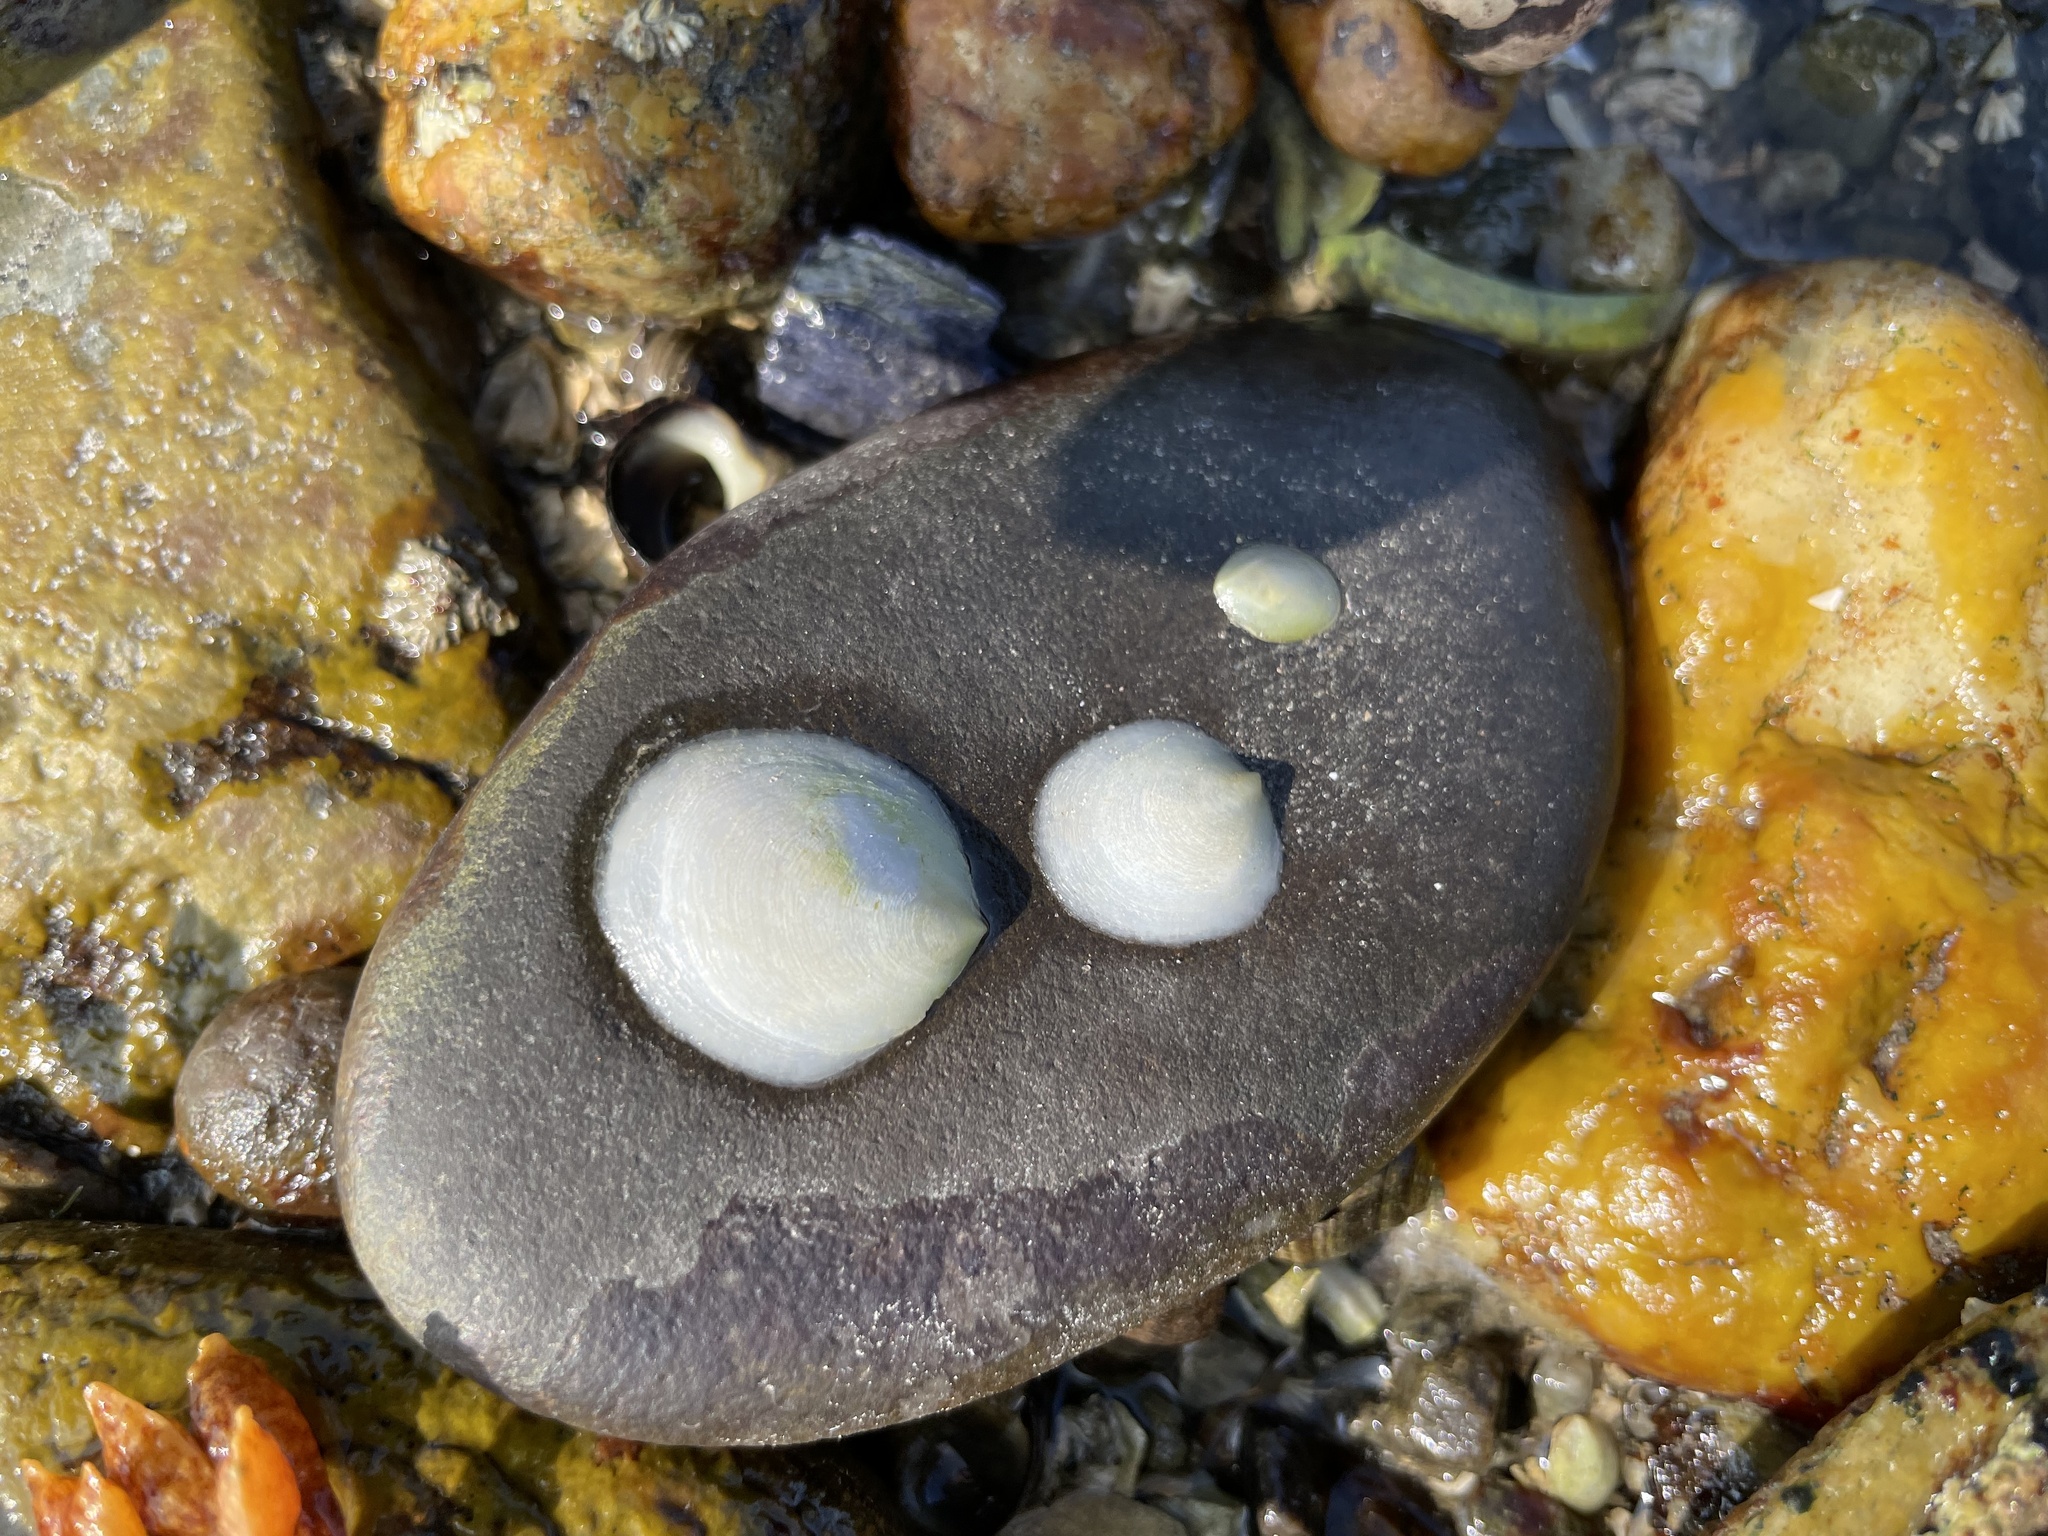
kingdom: Animalia
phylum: Mollusca
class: Gastropoda
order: Littorinimorpha
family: Calyptraeidae
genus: Crepidula
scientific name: Crepidula plana
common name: Eastern white slippersnail
